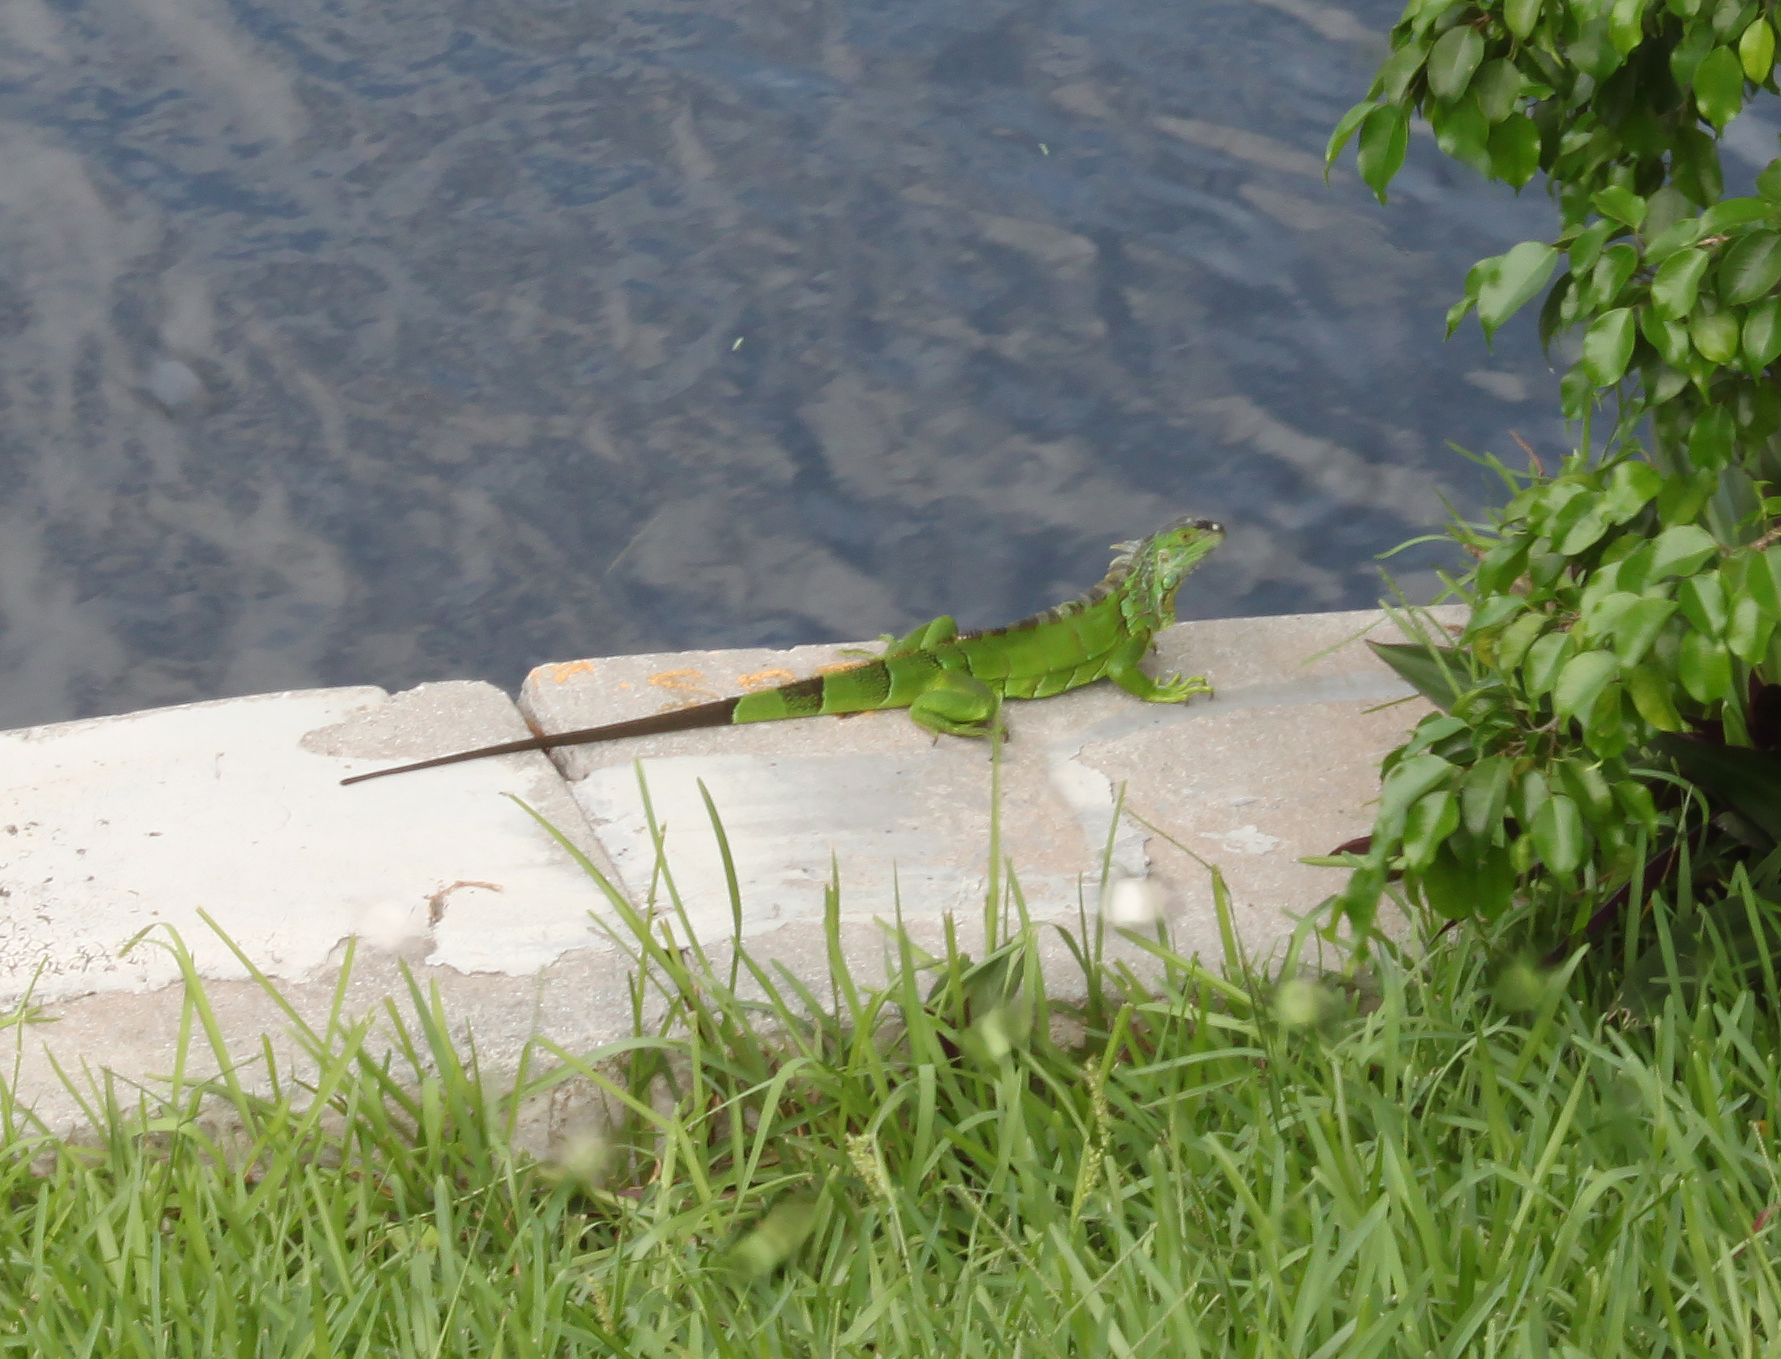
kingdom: Animalia
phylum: Chordata
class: Squamata
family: Iguanidae
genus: Iguana
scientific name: Iguana iguana
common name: Green iguana
